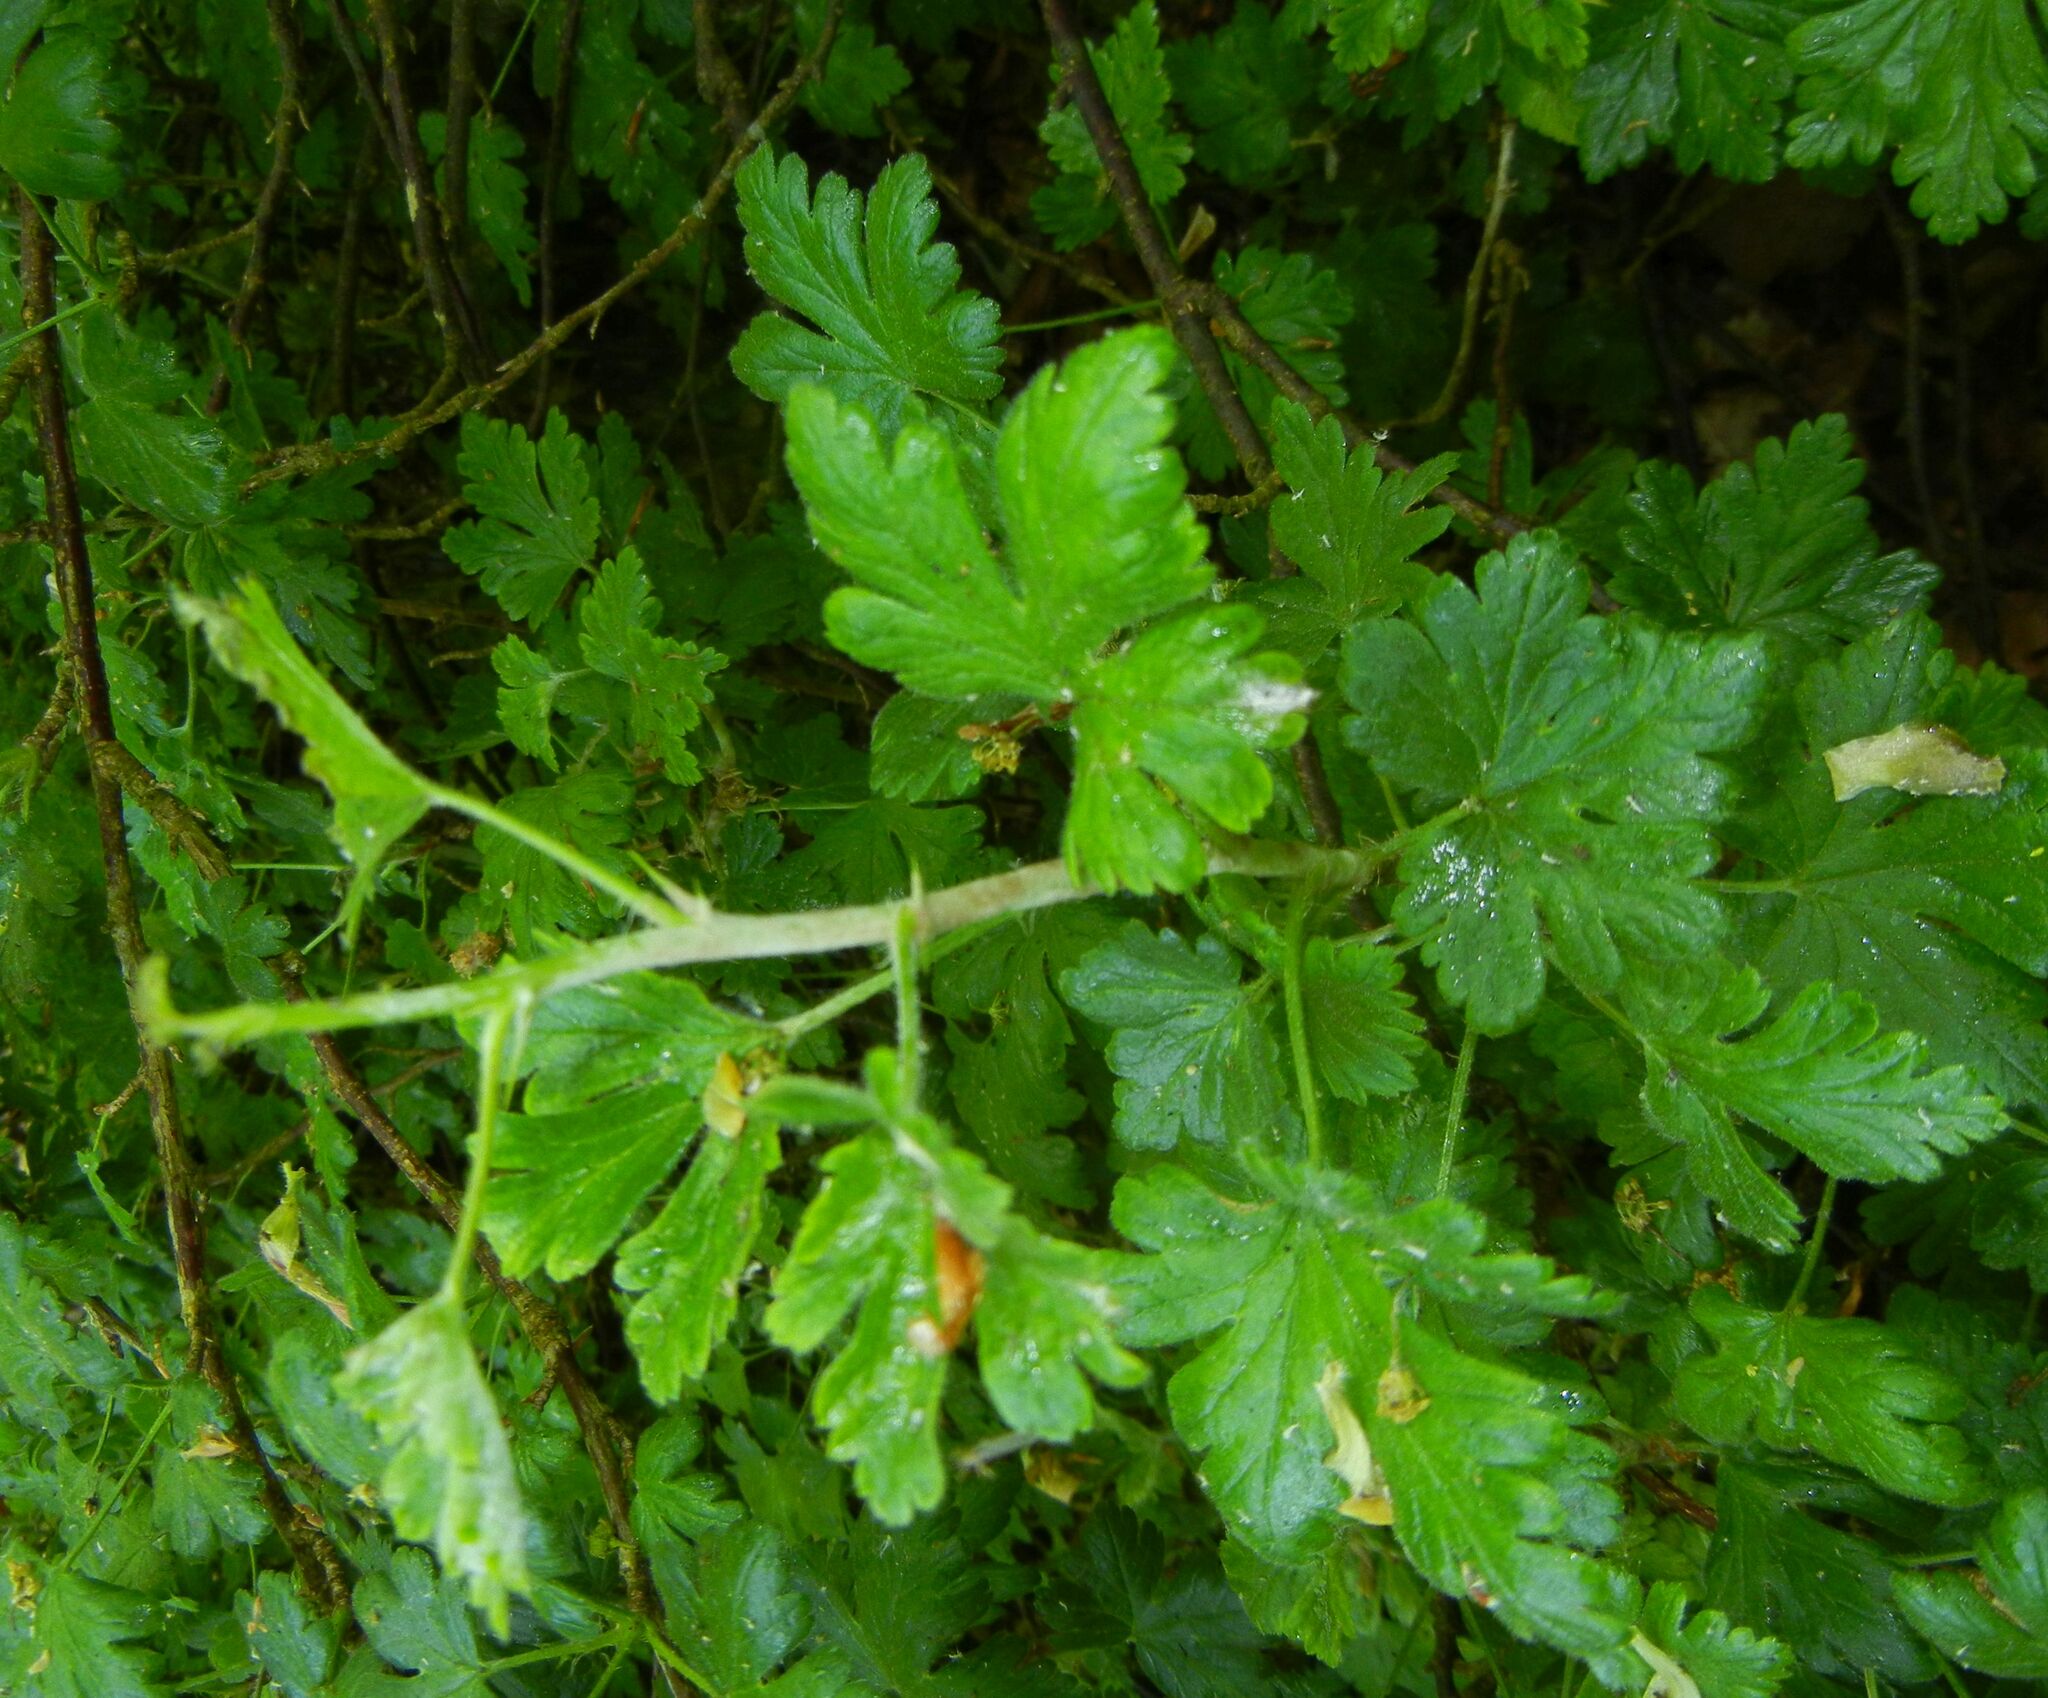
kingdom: Plantae
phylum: Tracheophyta
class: Magnoliopsida
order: Saxifragales
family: Grossulariaceae
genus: Ribes
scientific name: Ribes uva-crispa
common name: Gooseberry
